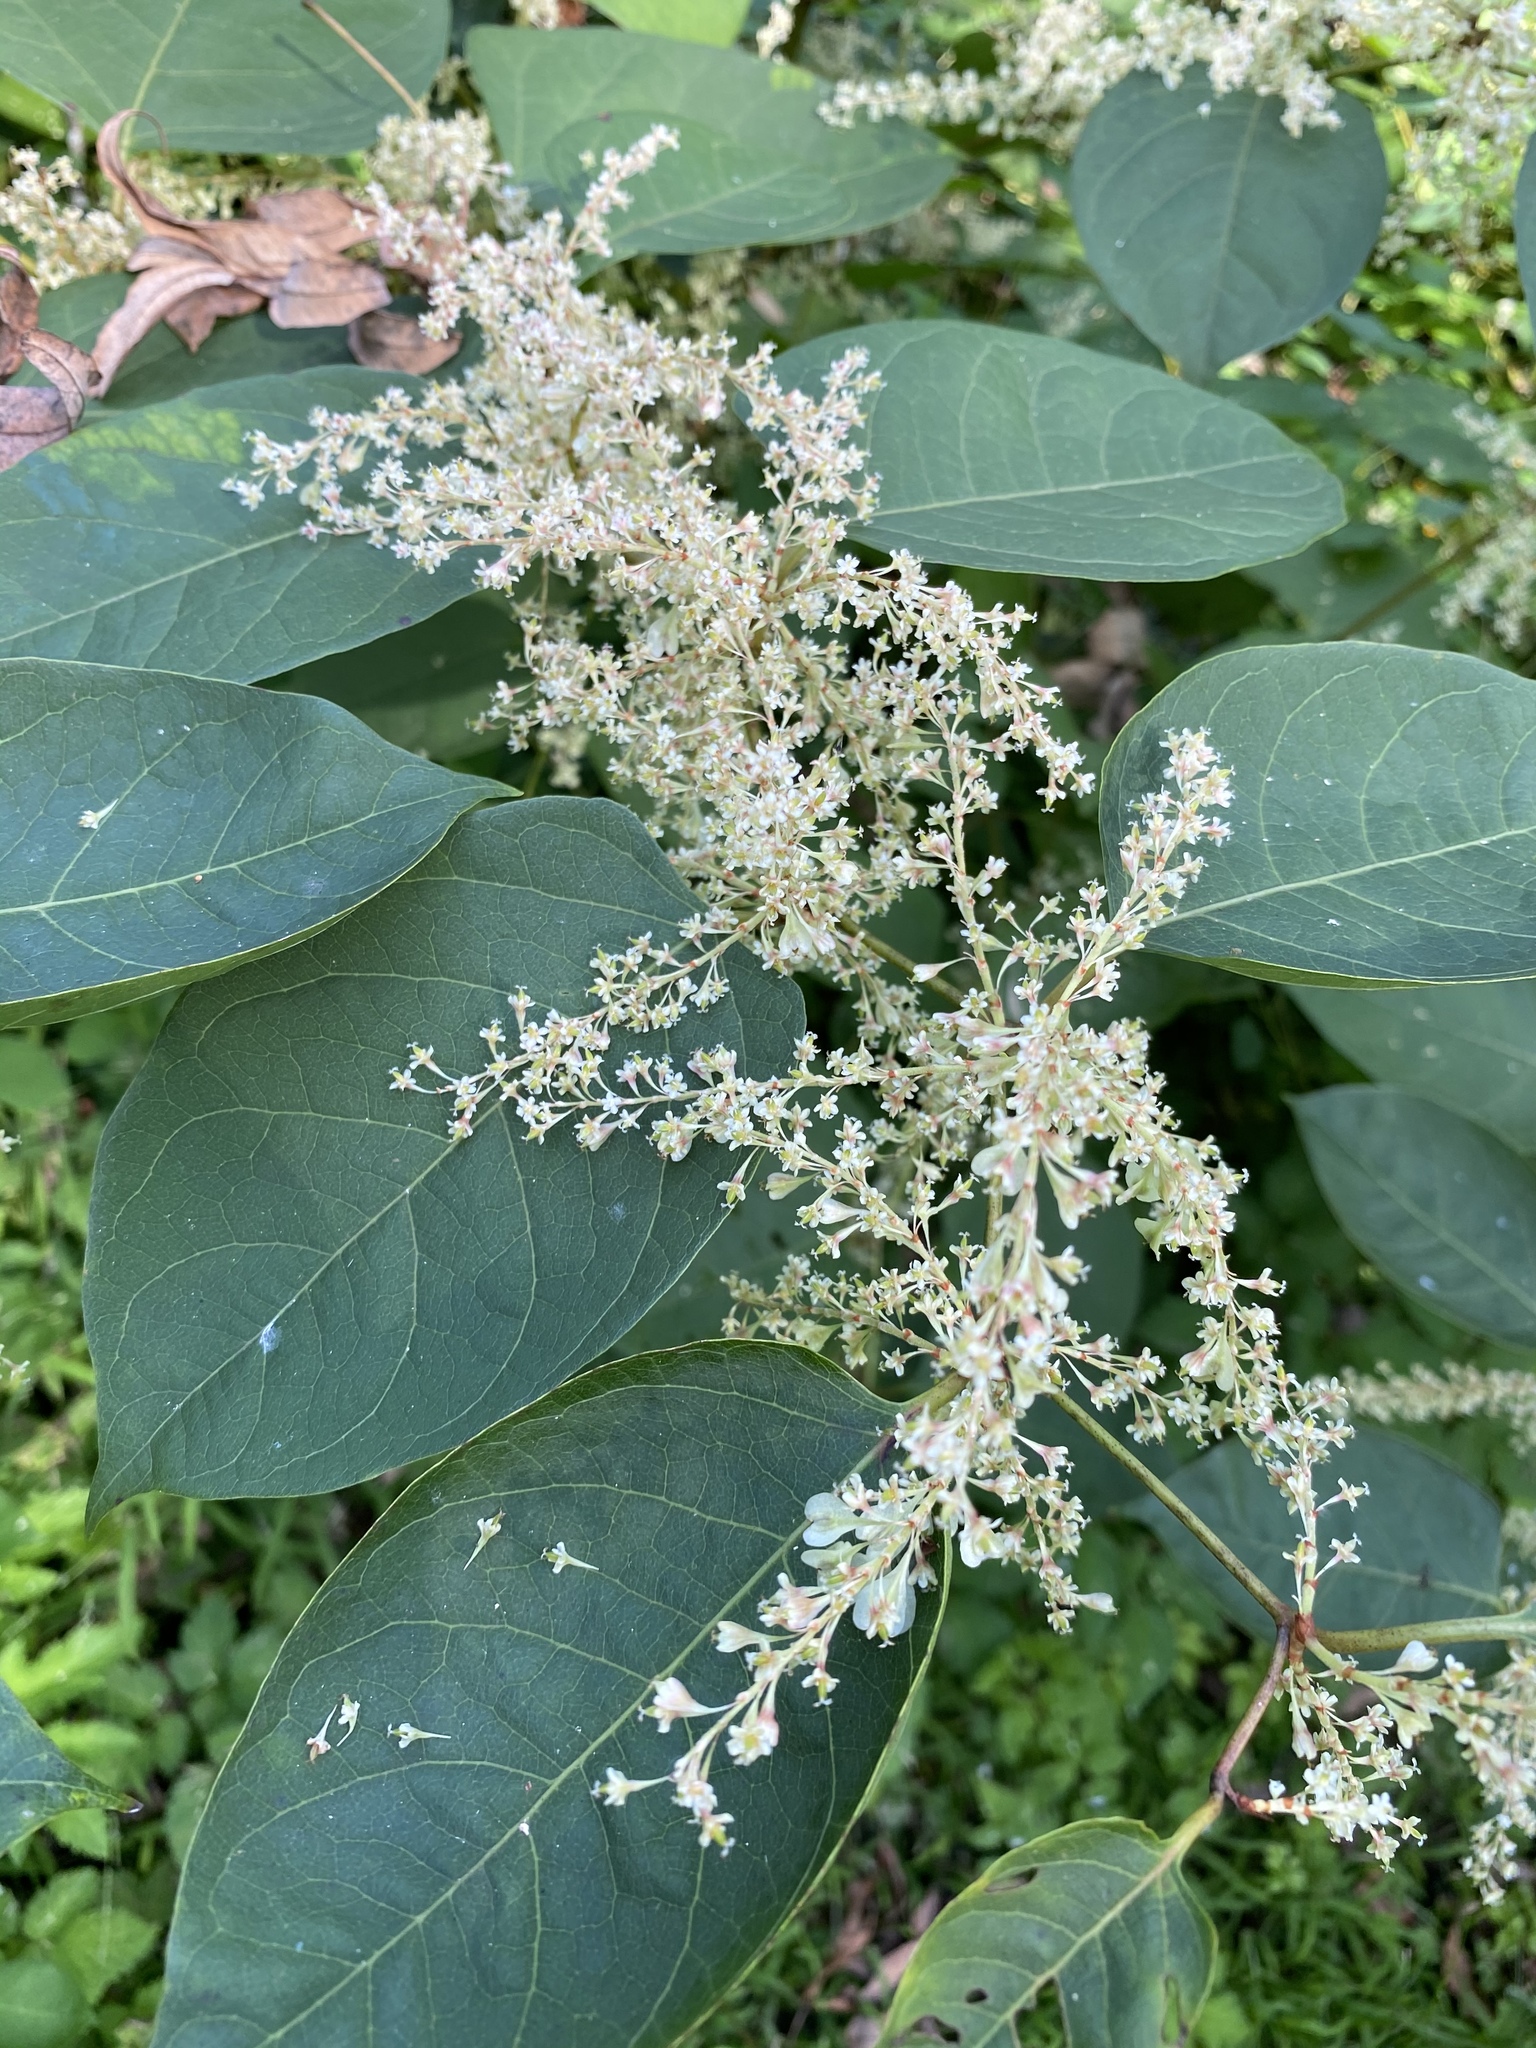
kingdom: Plantae
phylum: Tracheophyta
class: Magnoliopsida
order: Caryophyllales
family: Polygonaceae
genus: Reynoutria
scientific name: Reynoutria japonica
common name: Japanese knotweed
